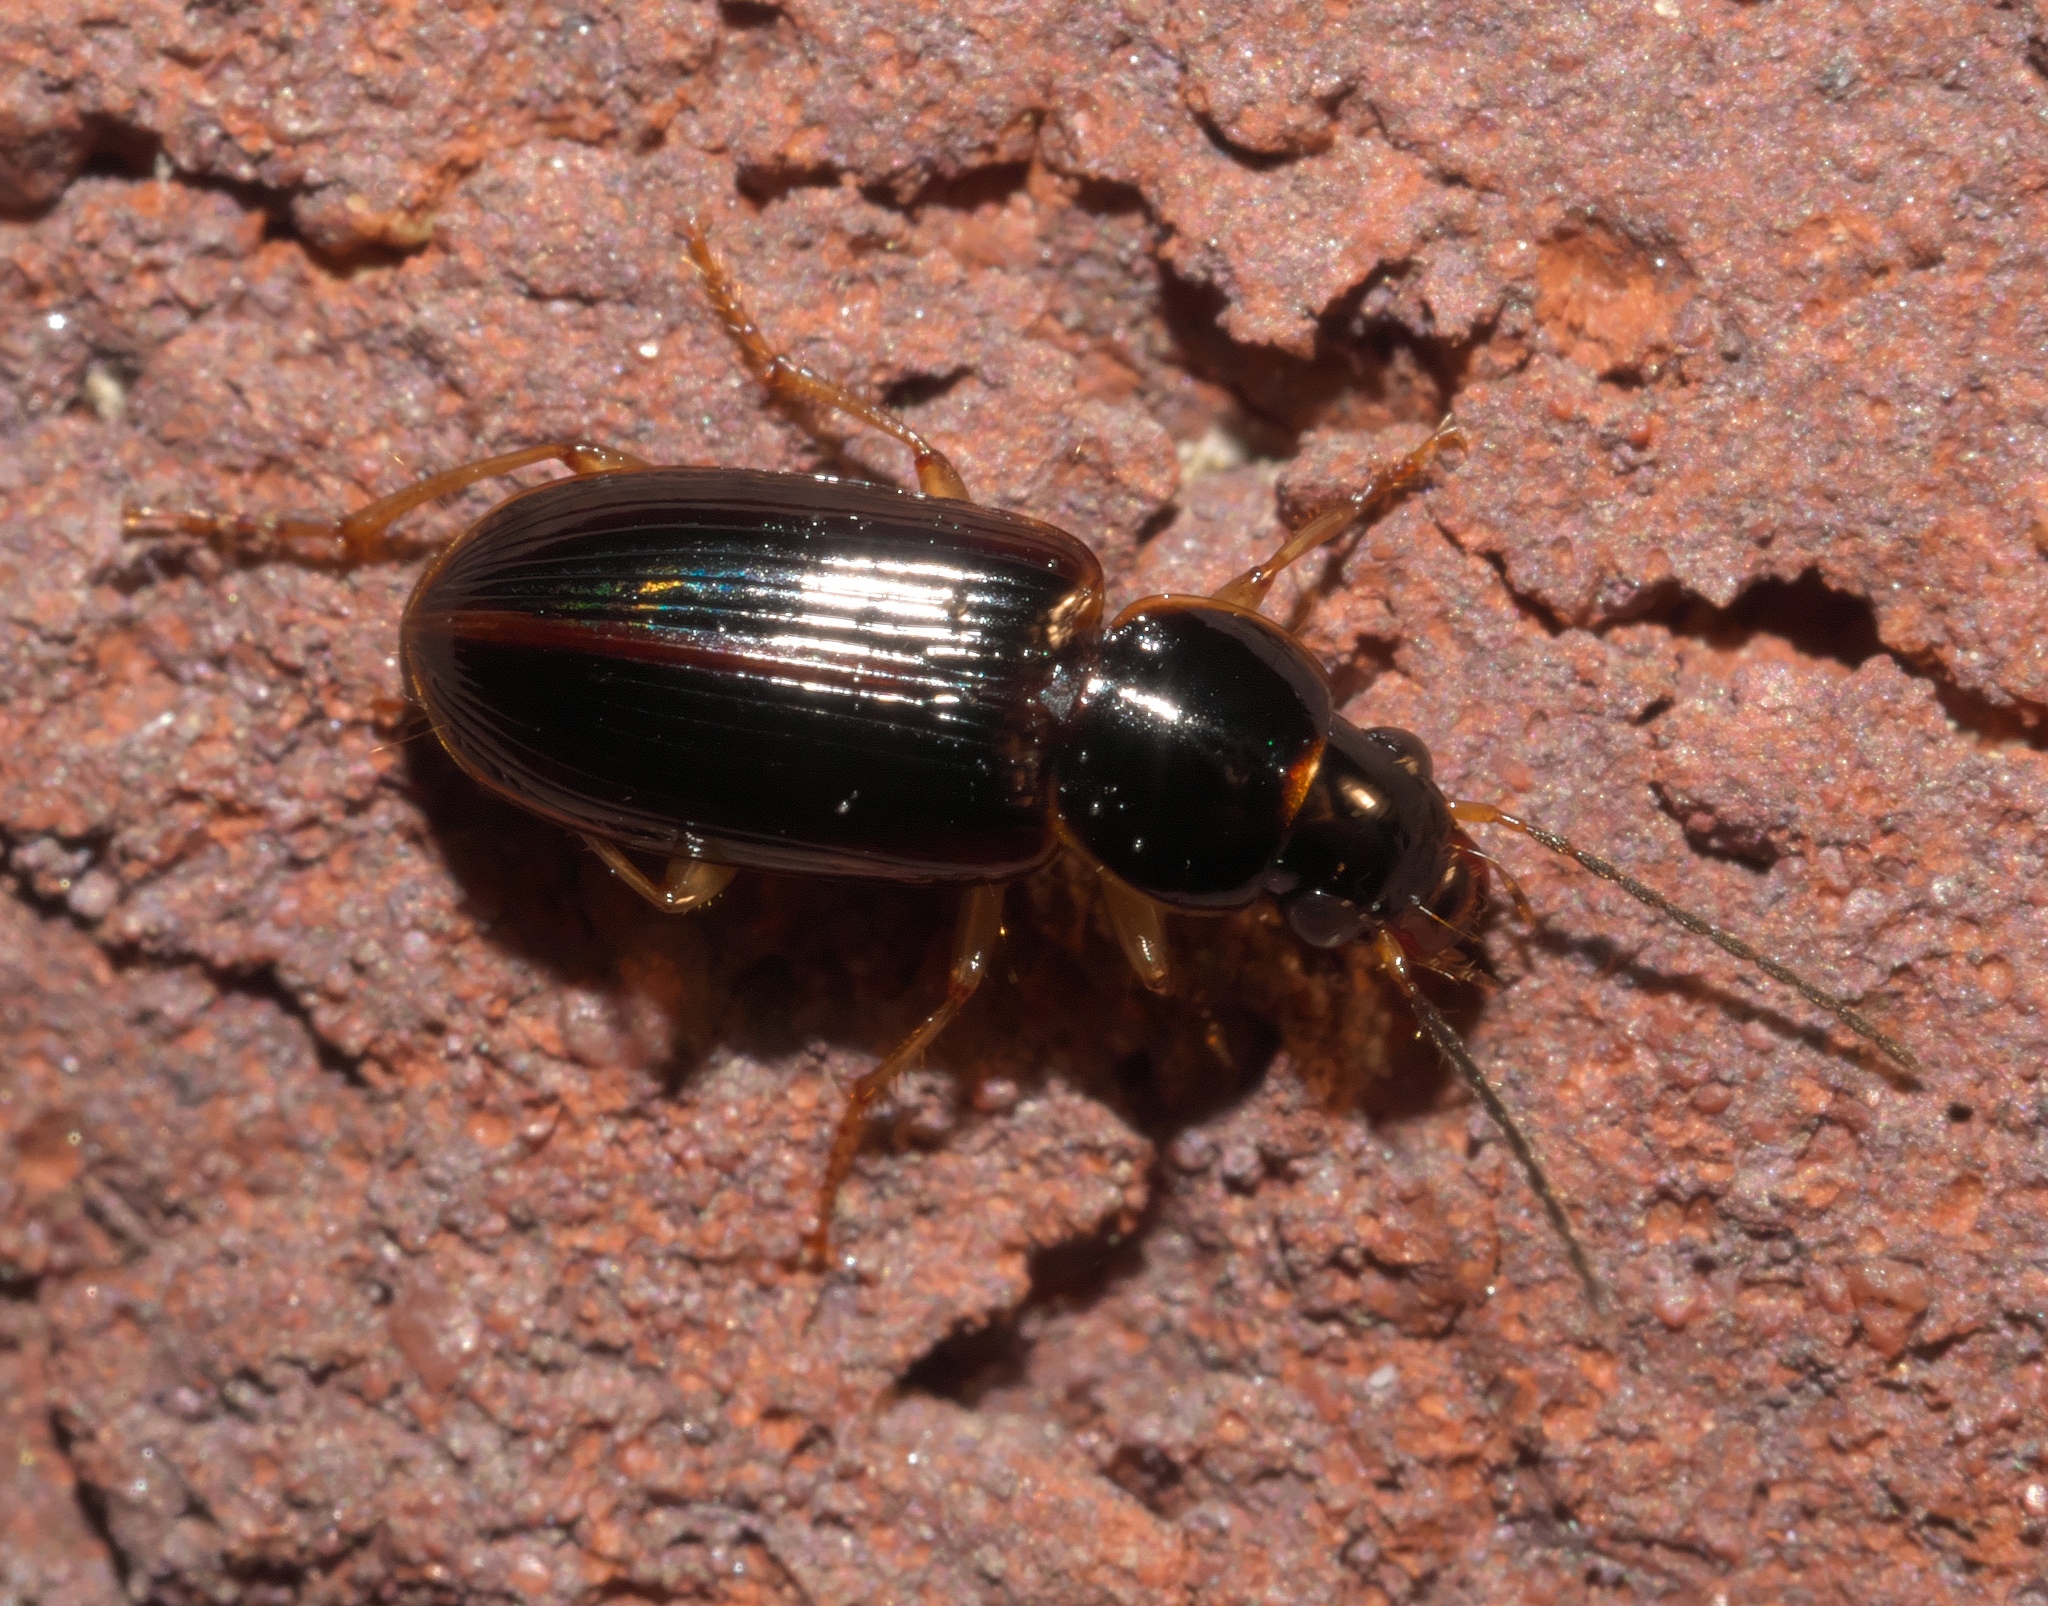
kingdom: Animalia
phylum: Arthropoda
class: Insecta
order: Coleoptera
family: Carabidae
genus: Stenolophus
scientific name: Stenolophus ochropezus
